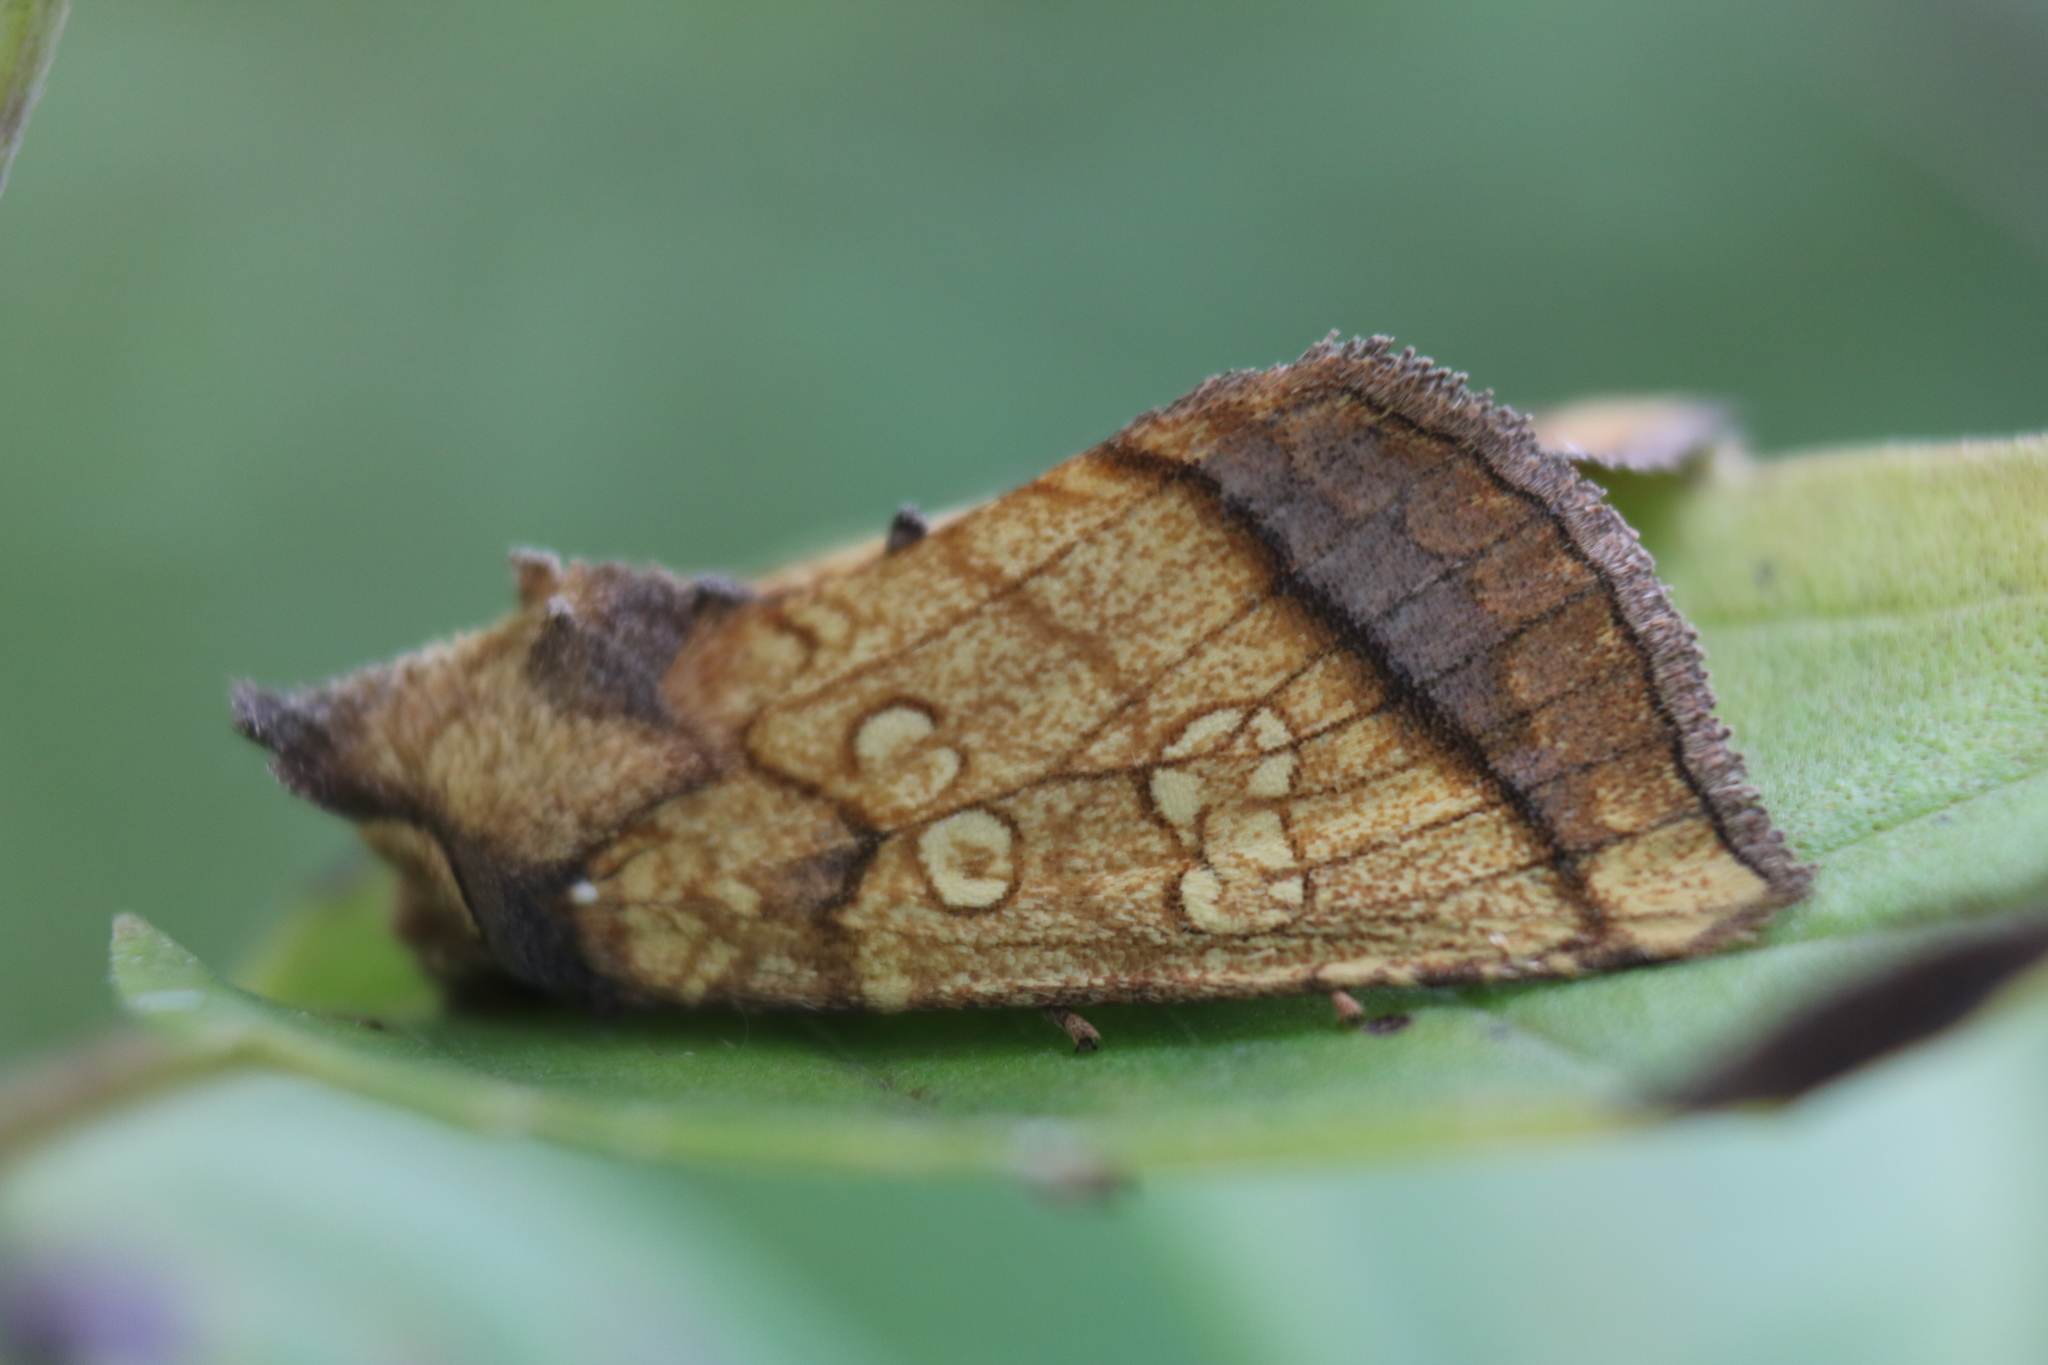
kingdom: Animalia
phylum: Arthropoda
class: Insecta
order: Lepidoptera
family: Noctuidae
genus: Papaipema
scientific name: Papaipema rigida
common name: Rigid sunflower borer moth
